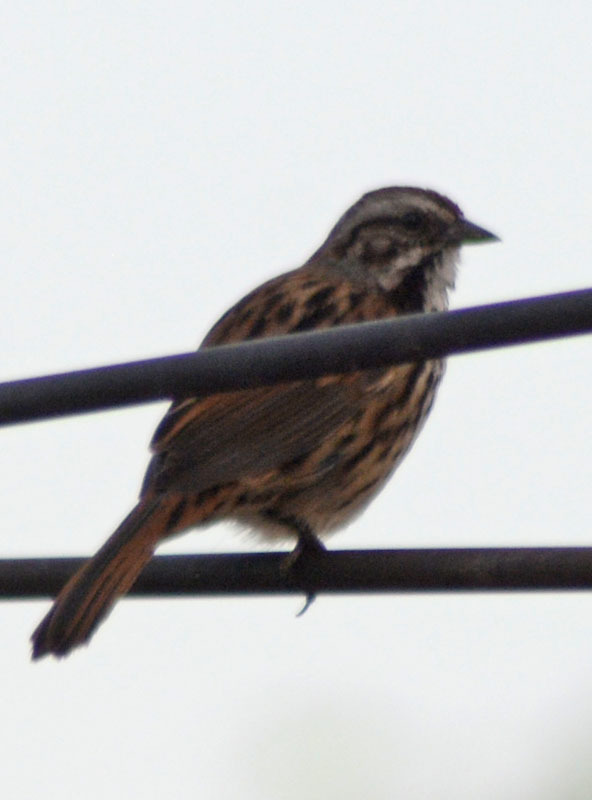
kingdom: Animalia
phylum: Chordata
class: Aves
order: Passeriformes
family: Passerellidae
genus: Melospiza
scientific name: Melospiza melodia
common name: Song sparrow
